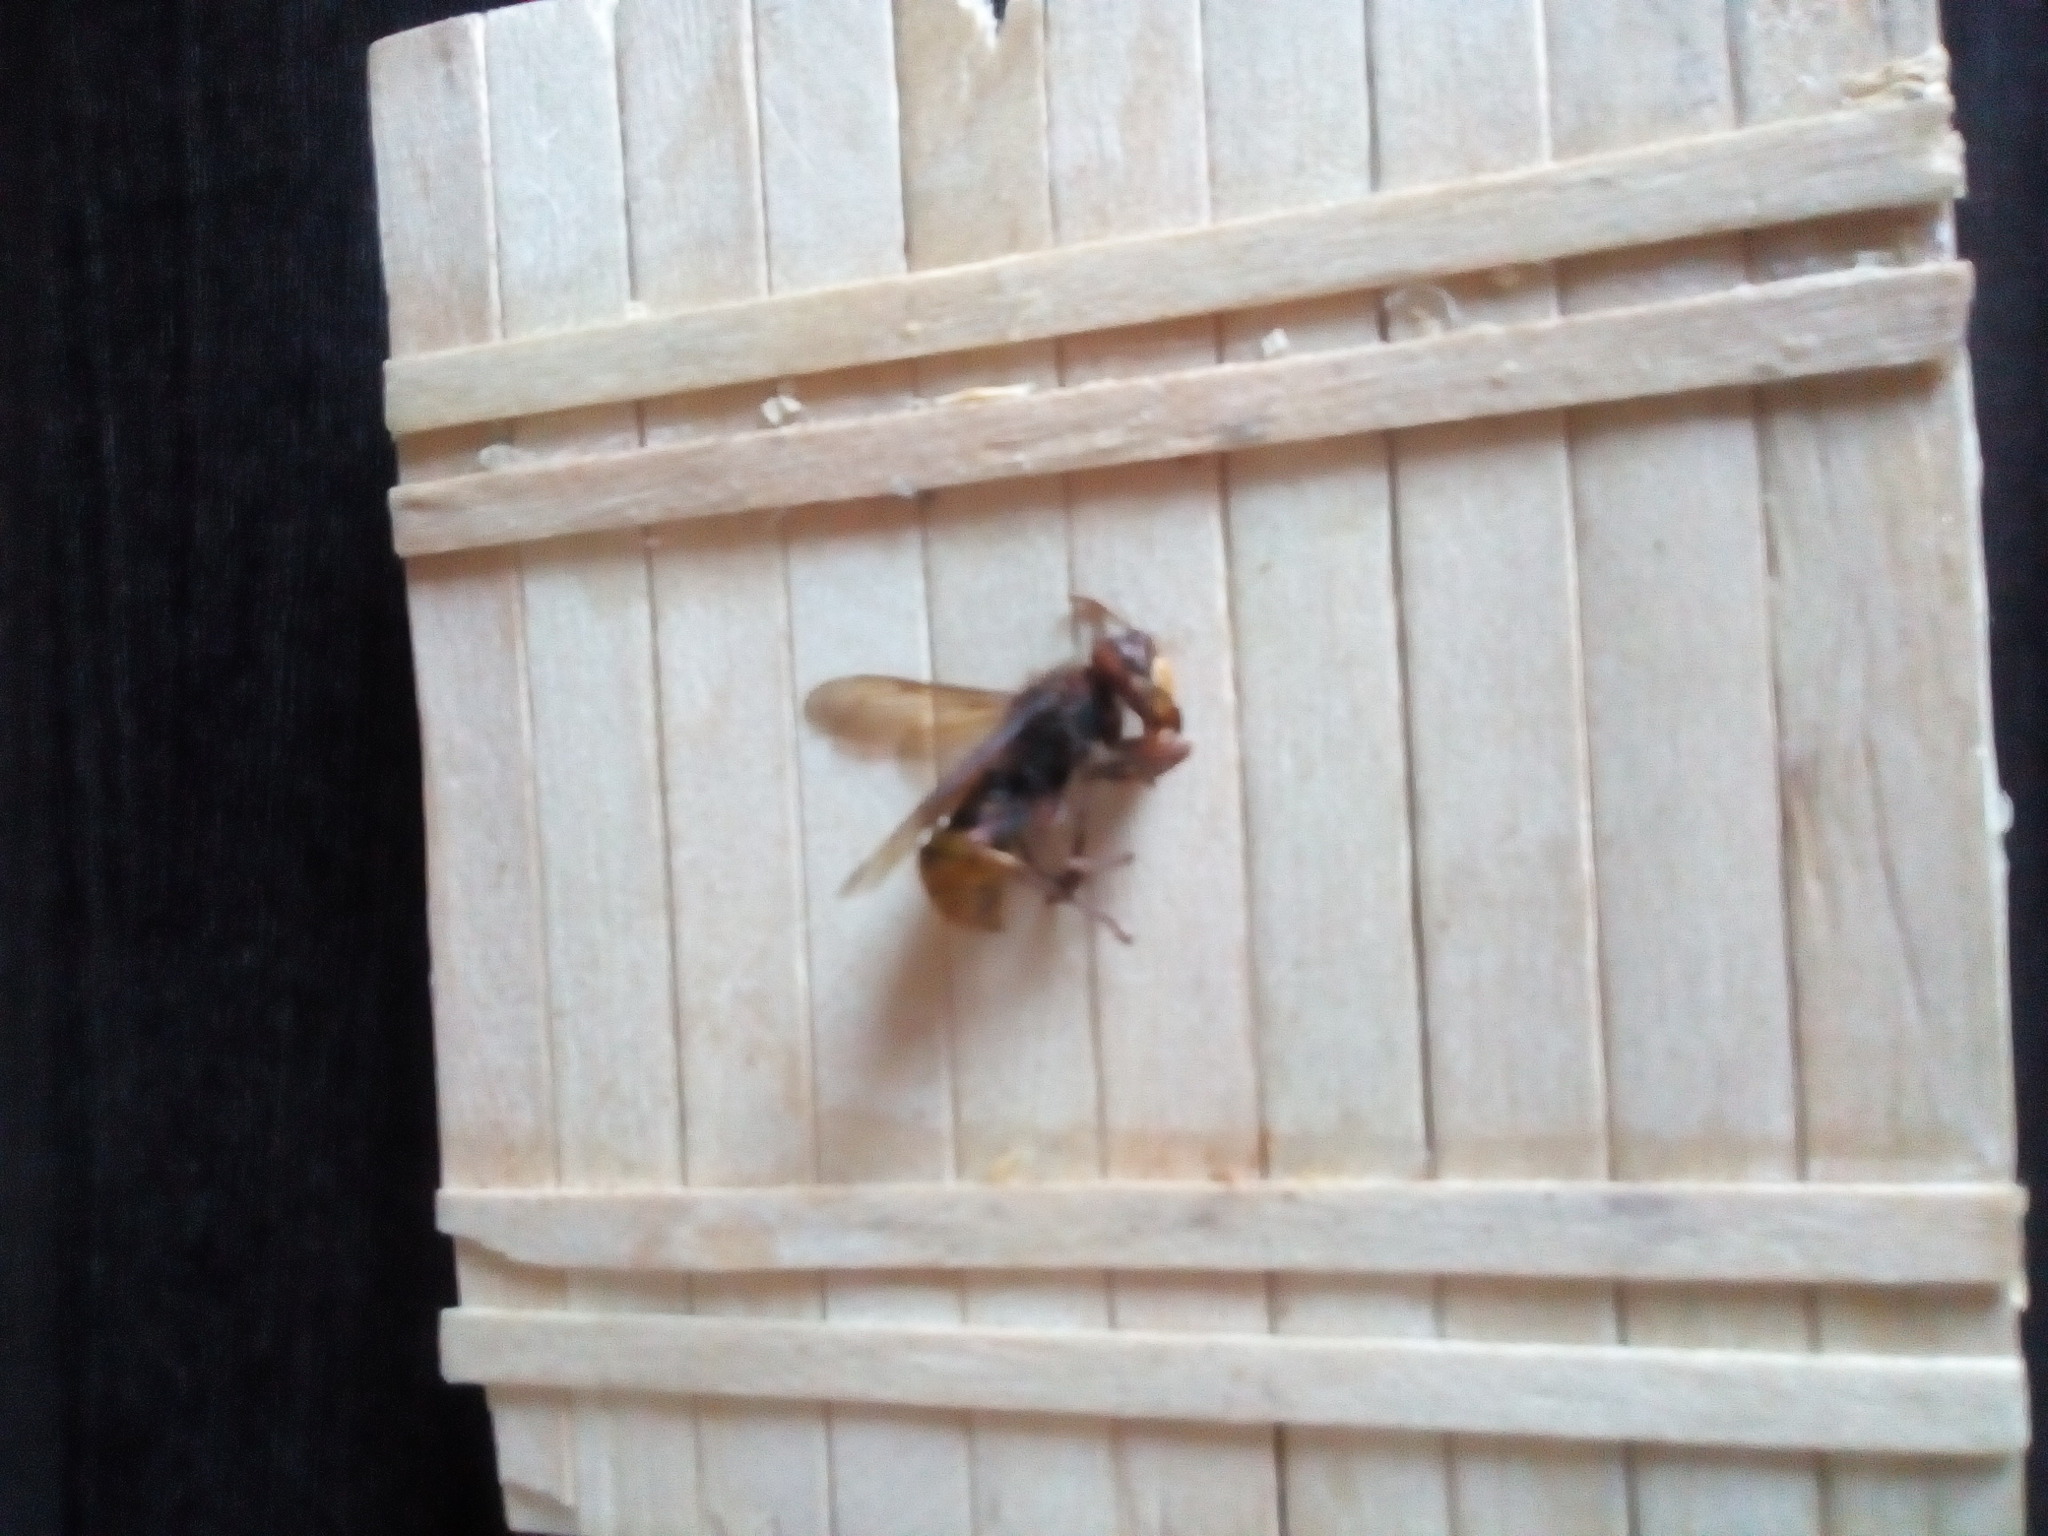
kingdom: Animalia
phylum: Arthropoda
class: Insecta
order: Hymenoptera
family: Vespidae
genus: Vespa
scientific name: Vespa crabro
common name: Hornet
